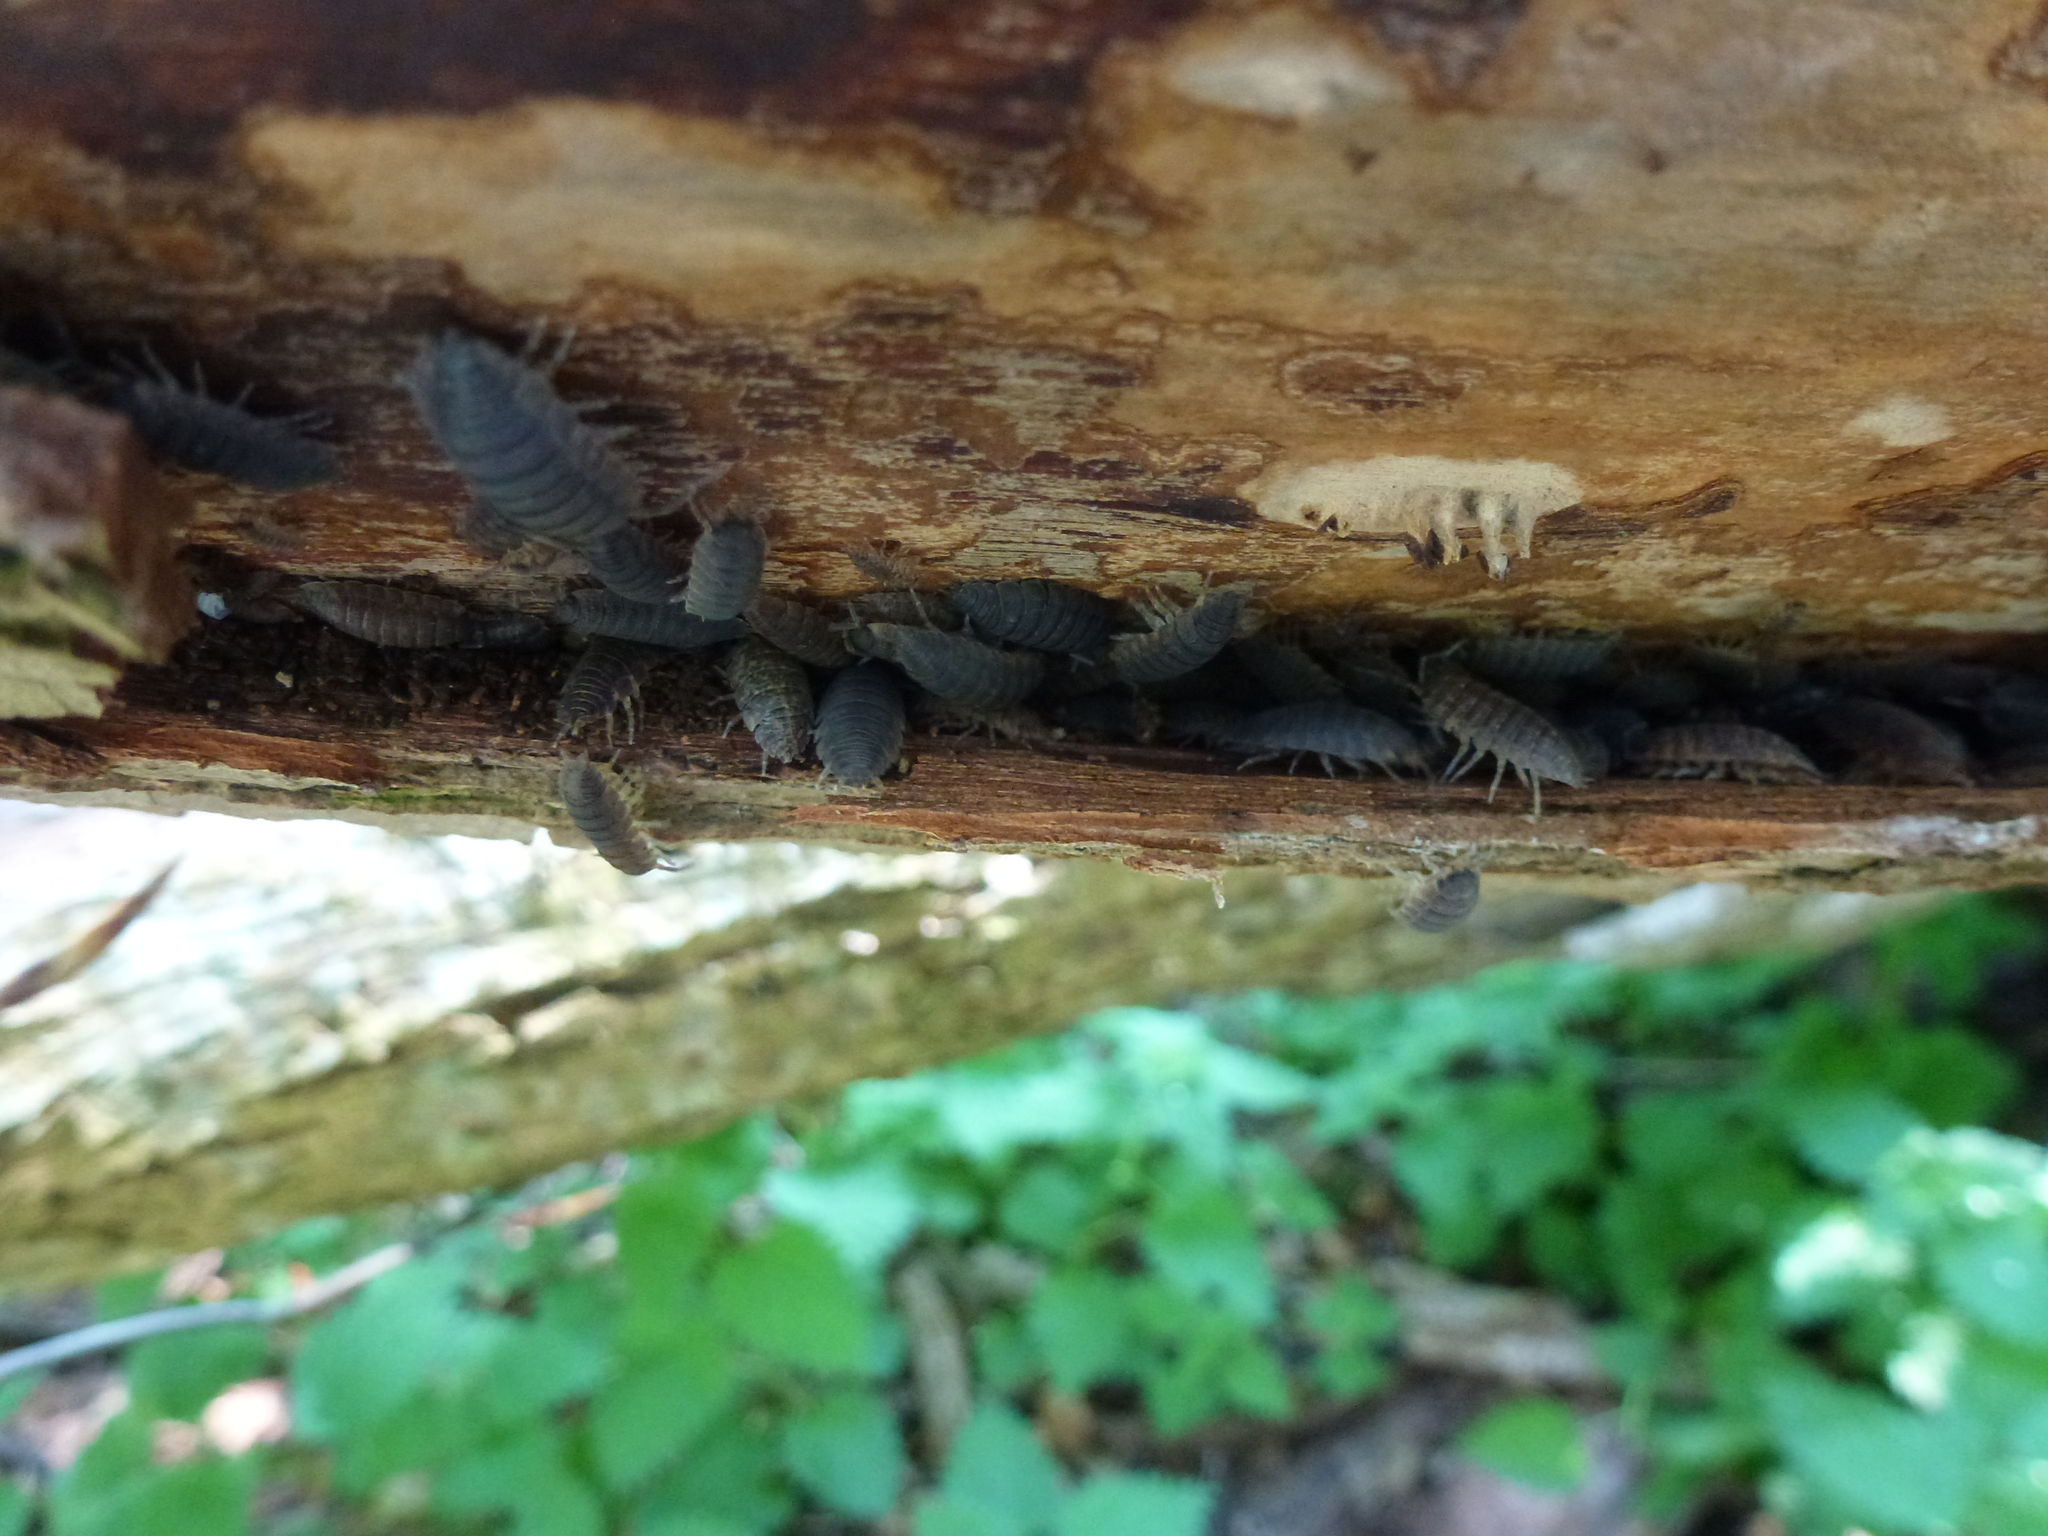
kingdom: Animalia
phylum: Arthropoda
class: Malacostraca
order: Isopoda
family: Porcellionidae
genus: Porcellio
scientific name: Porcellio scaber
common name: Common rough woodlouse
